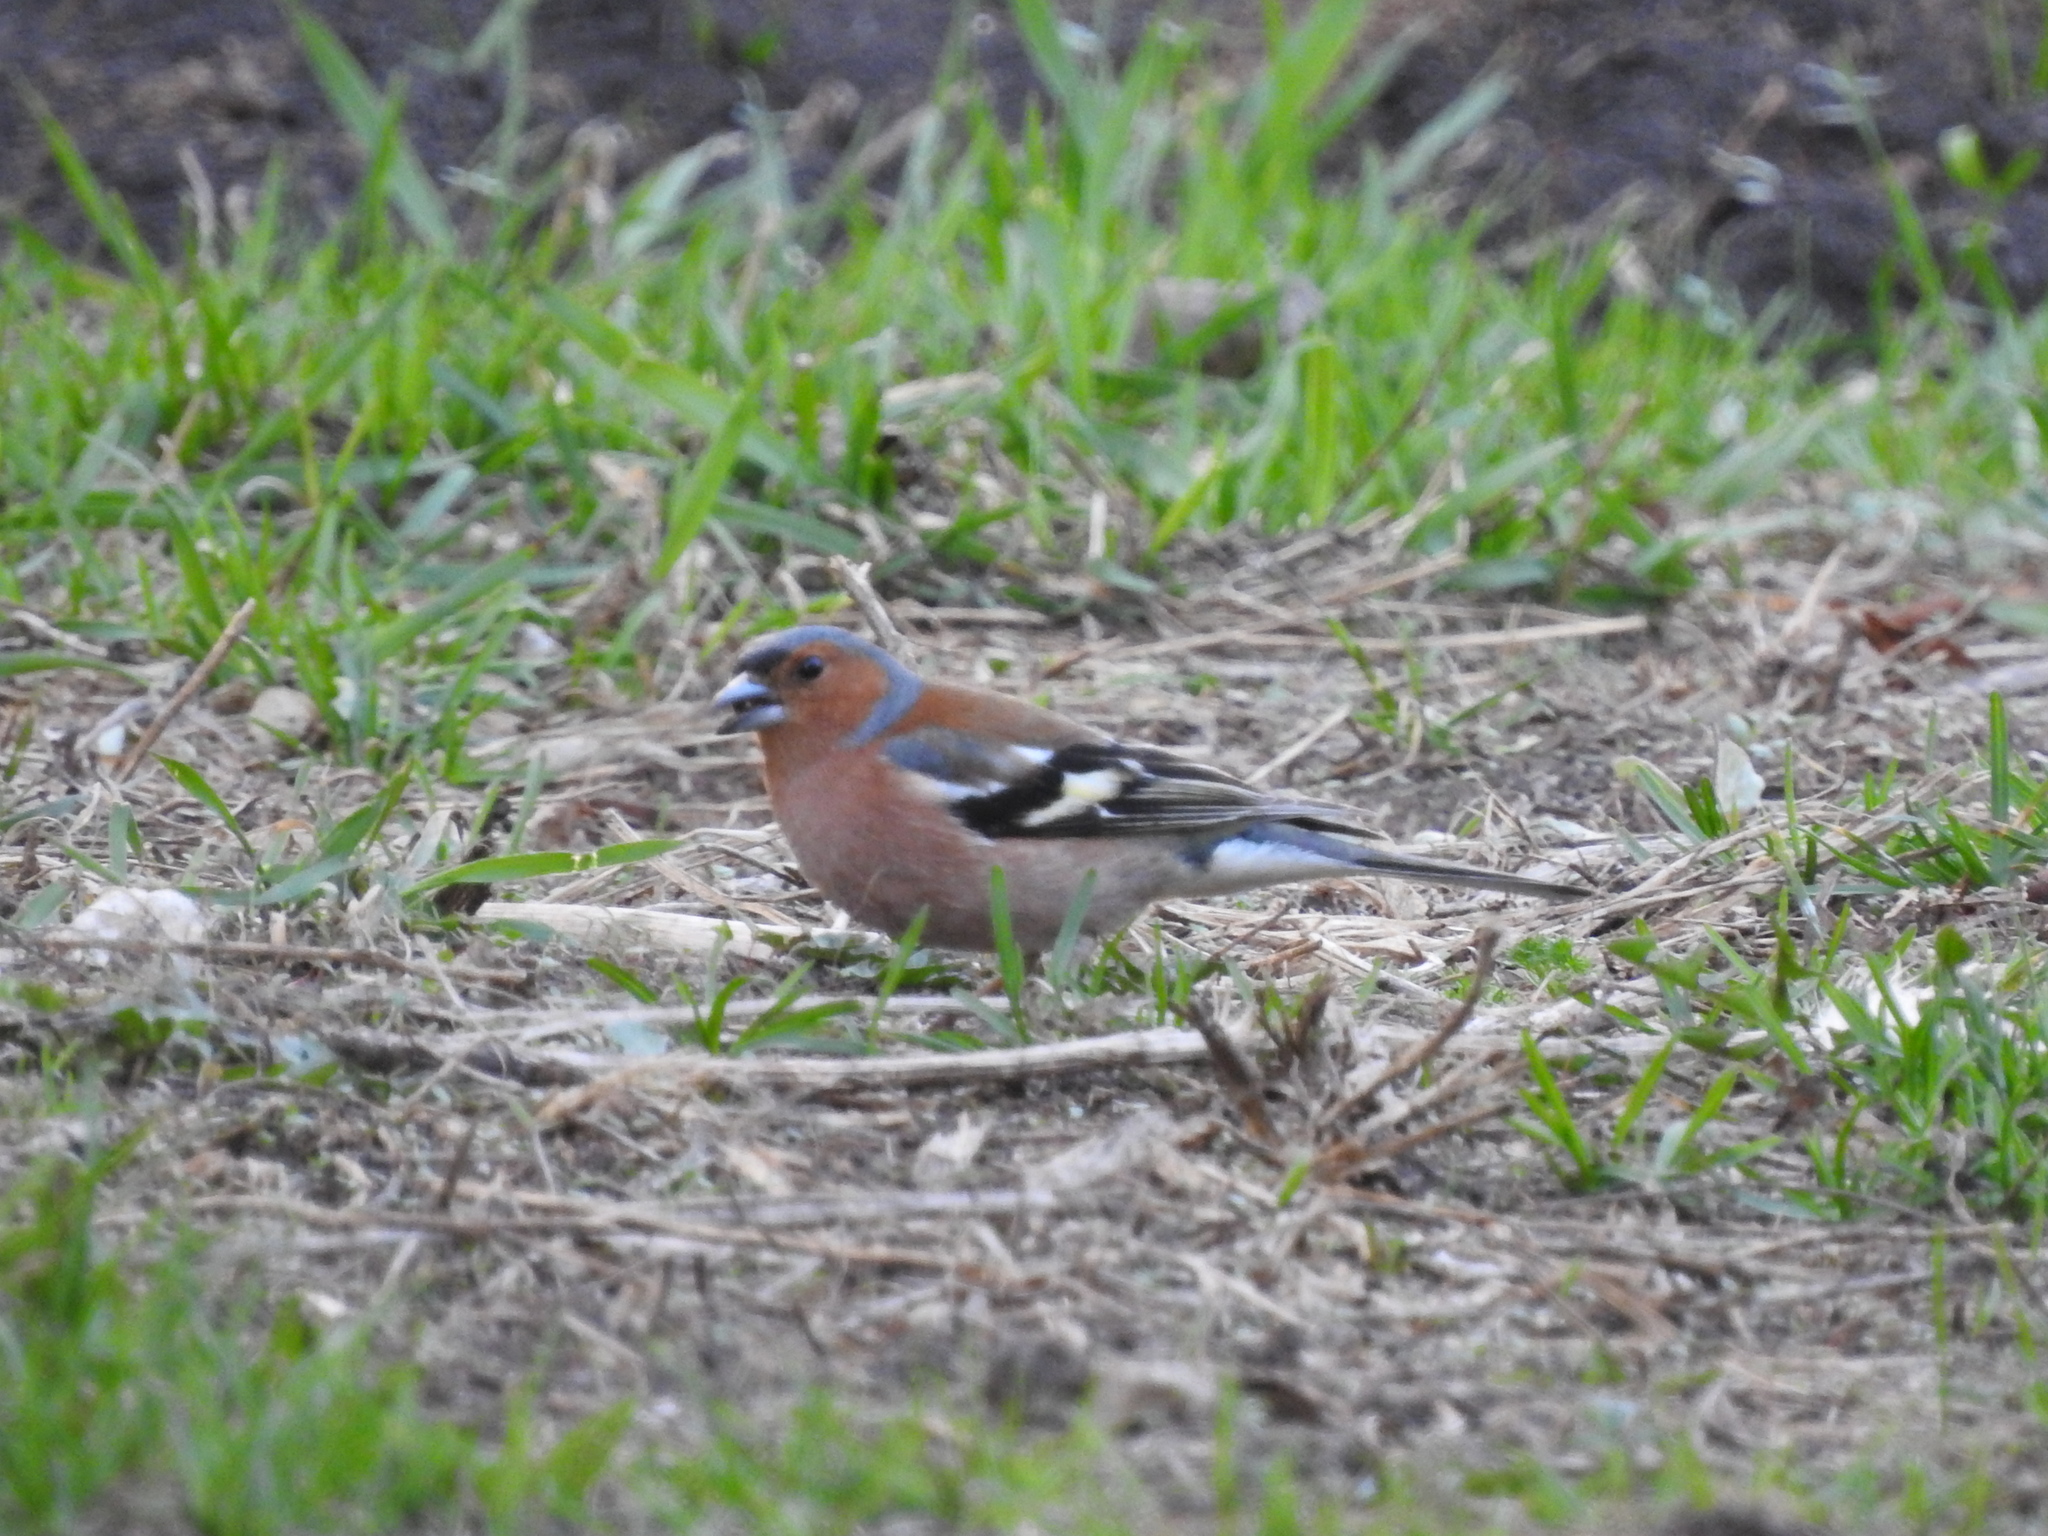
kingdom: Animalia
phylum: Chordata
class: Aves
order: Passeriformes
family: Fringillidae
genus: Fringilla
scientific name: Fringilla coelebs
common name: Common chaffinch
